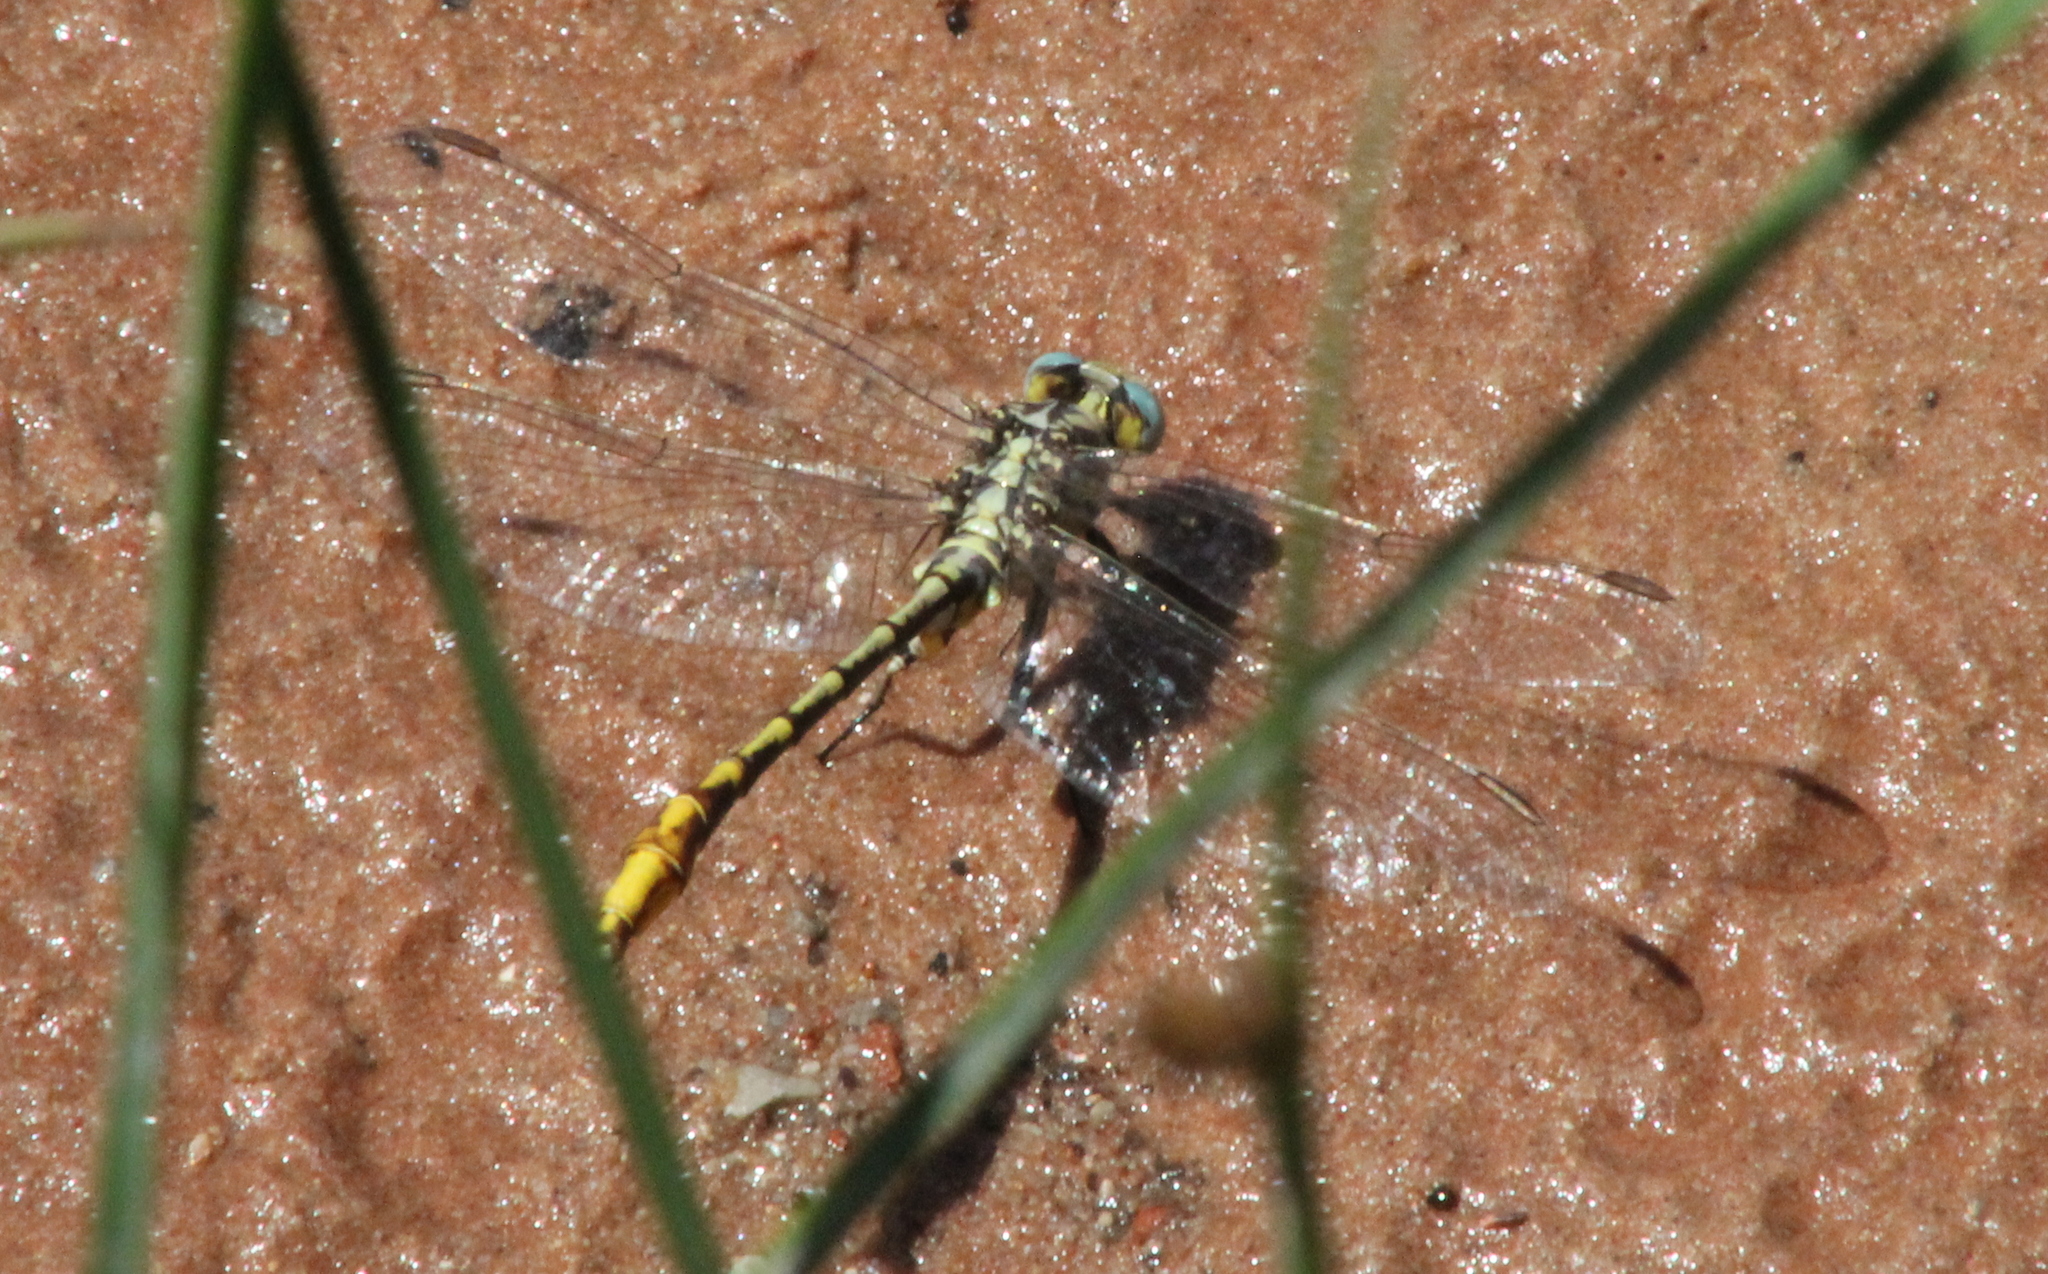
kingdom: Animalia
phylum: Arthropoda
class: Insecta
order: Odonata
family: Gomphidae
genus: Phanogomphus
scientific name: Phanogomphus militaris
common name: Sulphur-tipped clubtail
